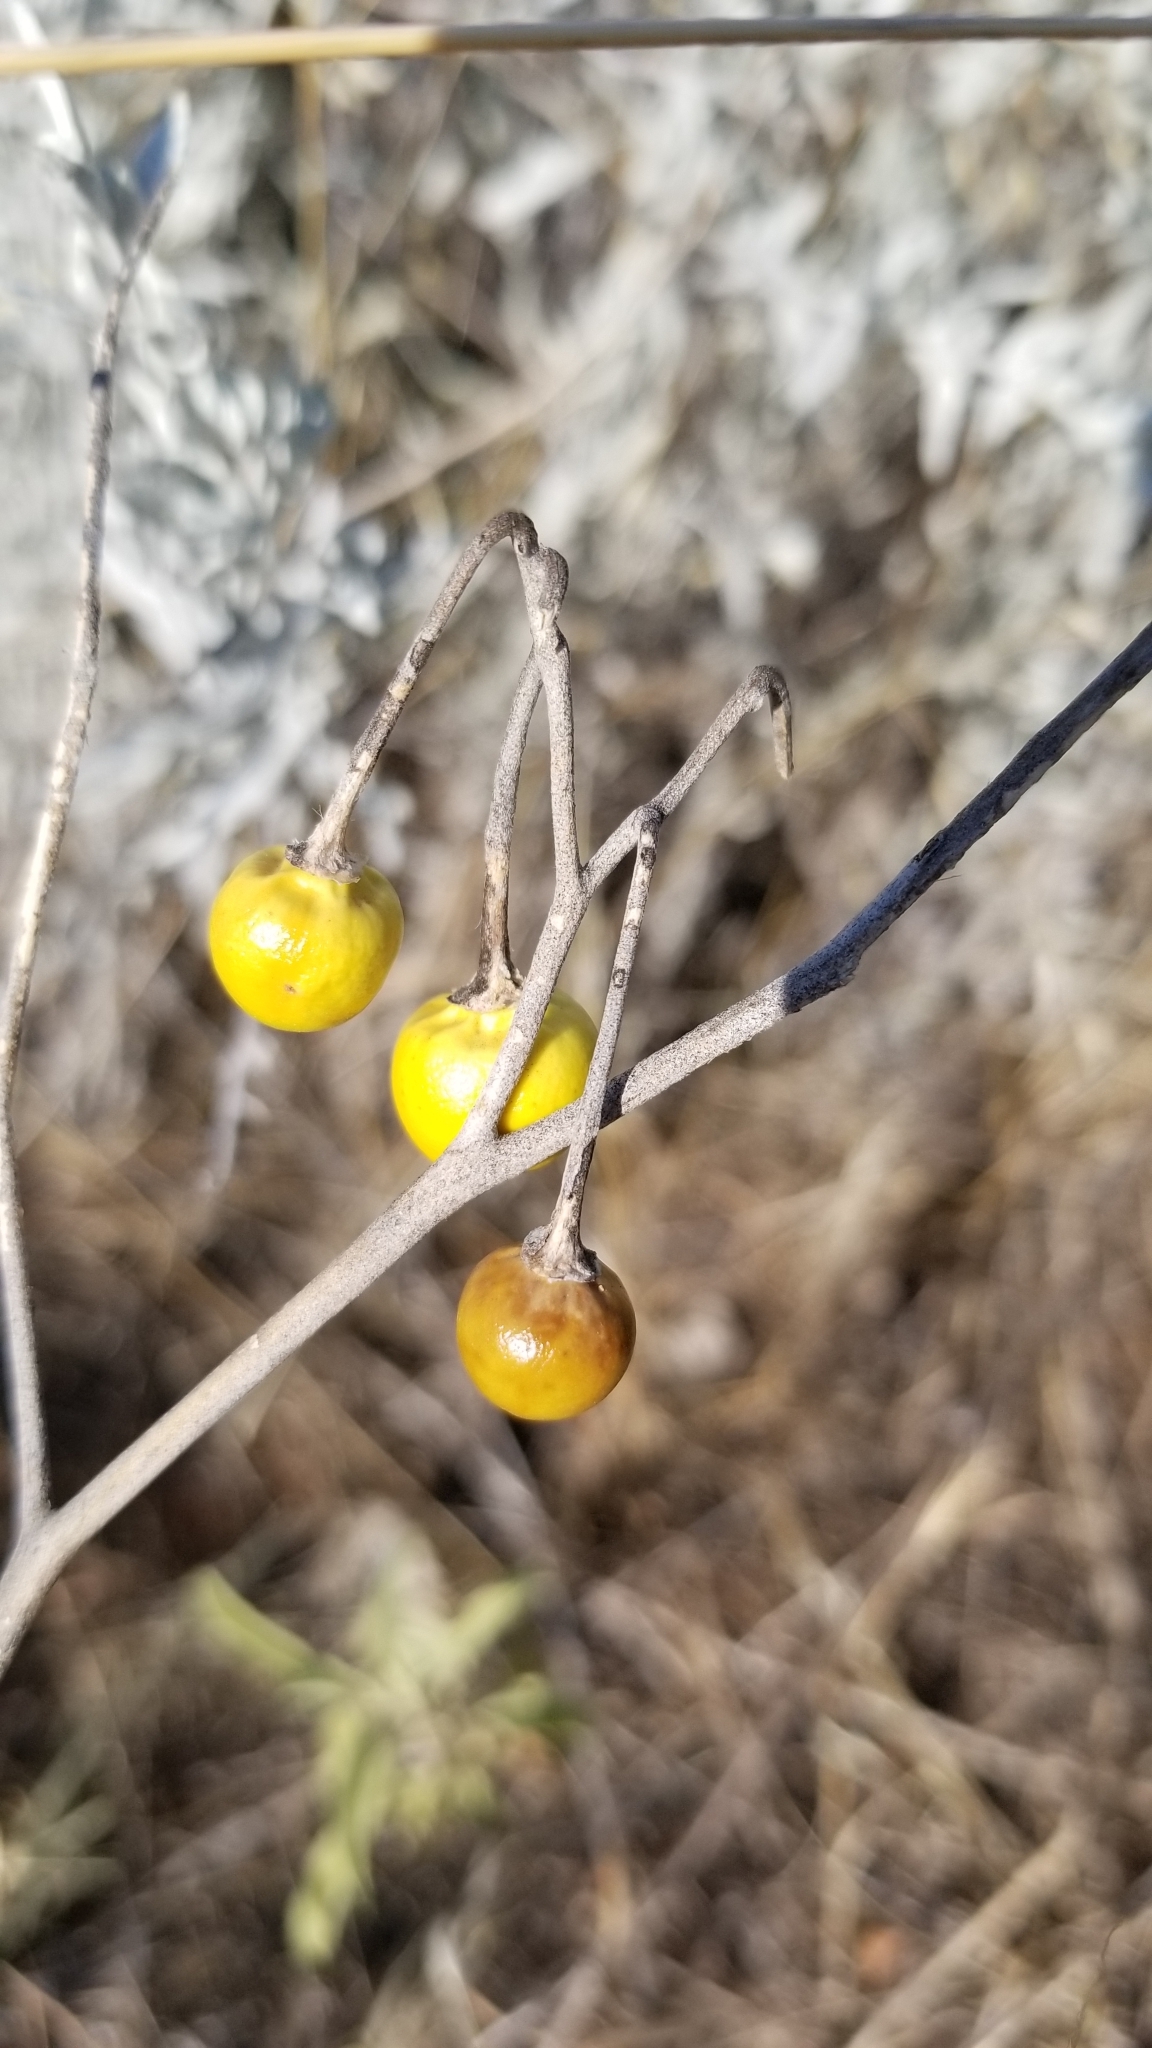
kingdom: Plantae
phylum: Tracheophyta
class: Magnoliopsida
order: Solanales
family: Solanaceae
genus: Solanum
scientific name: Solanum elaeagnifolium
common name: Silverleaf nightshade
